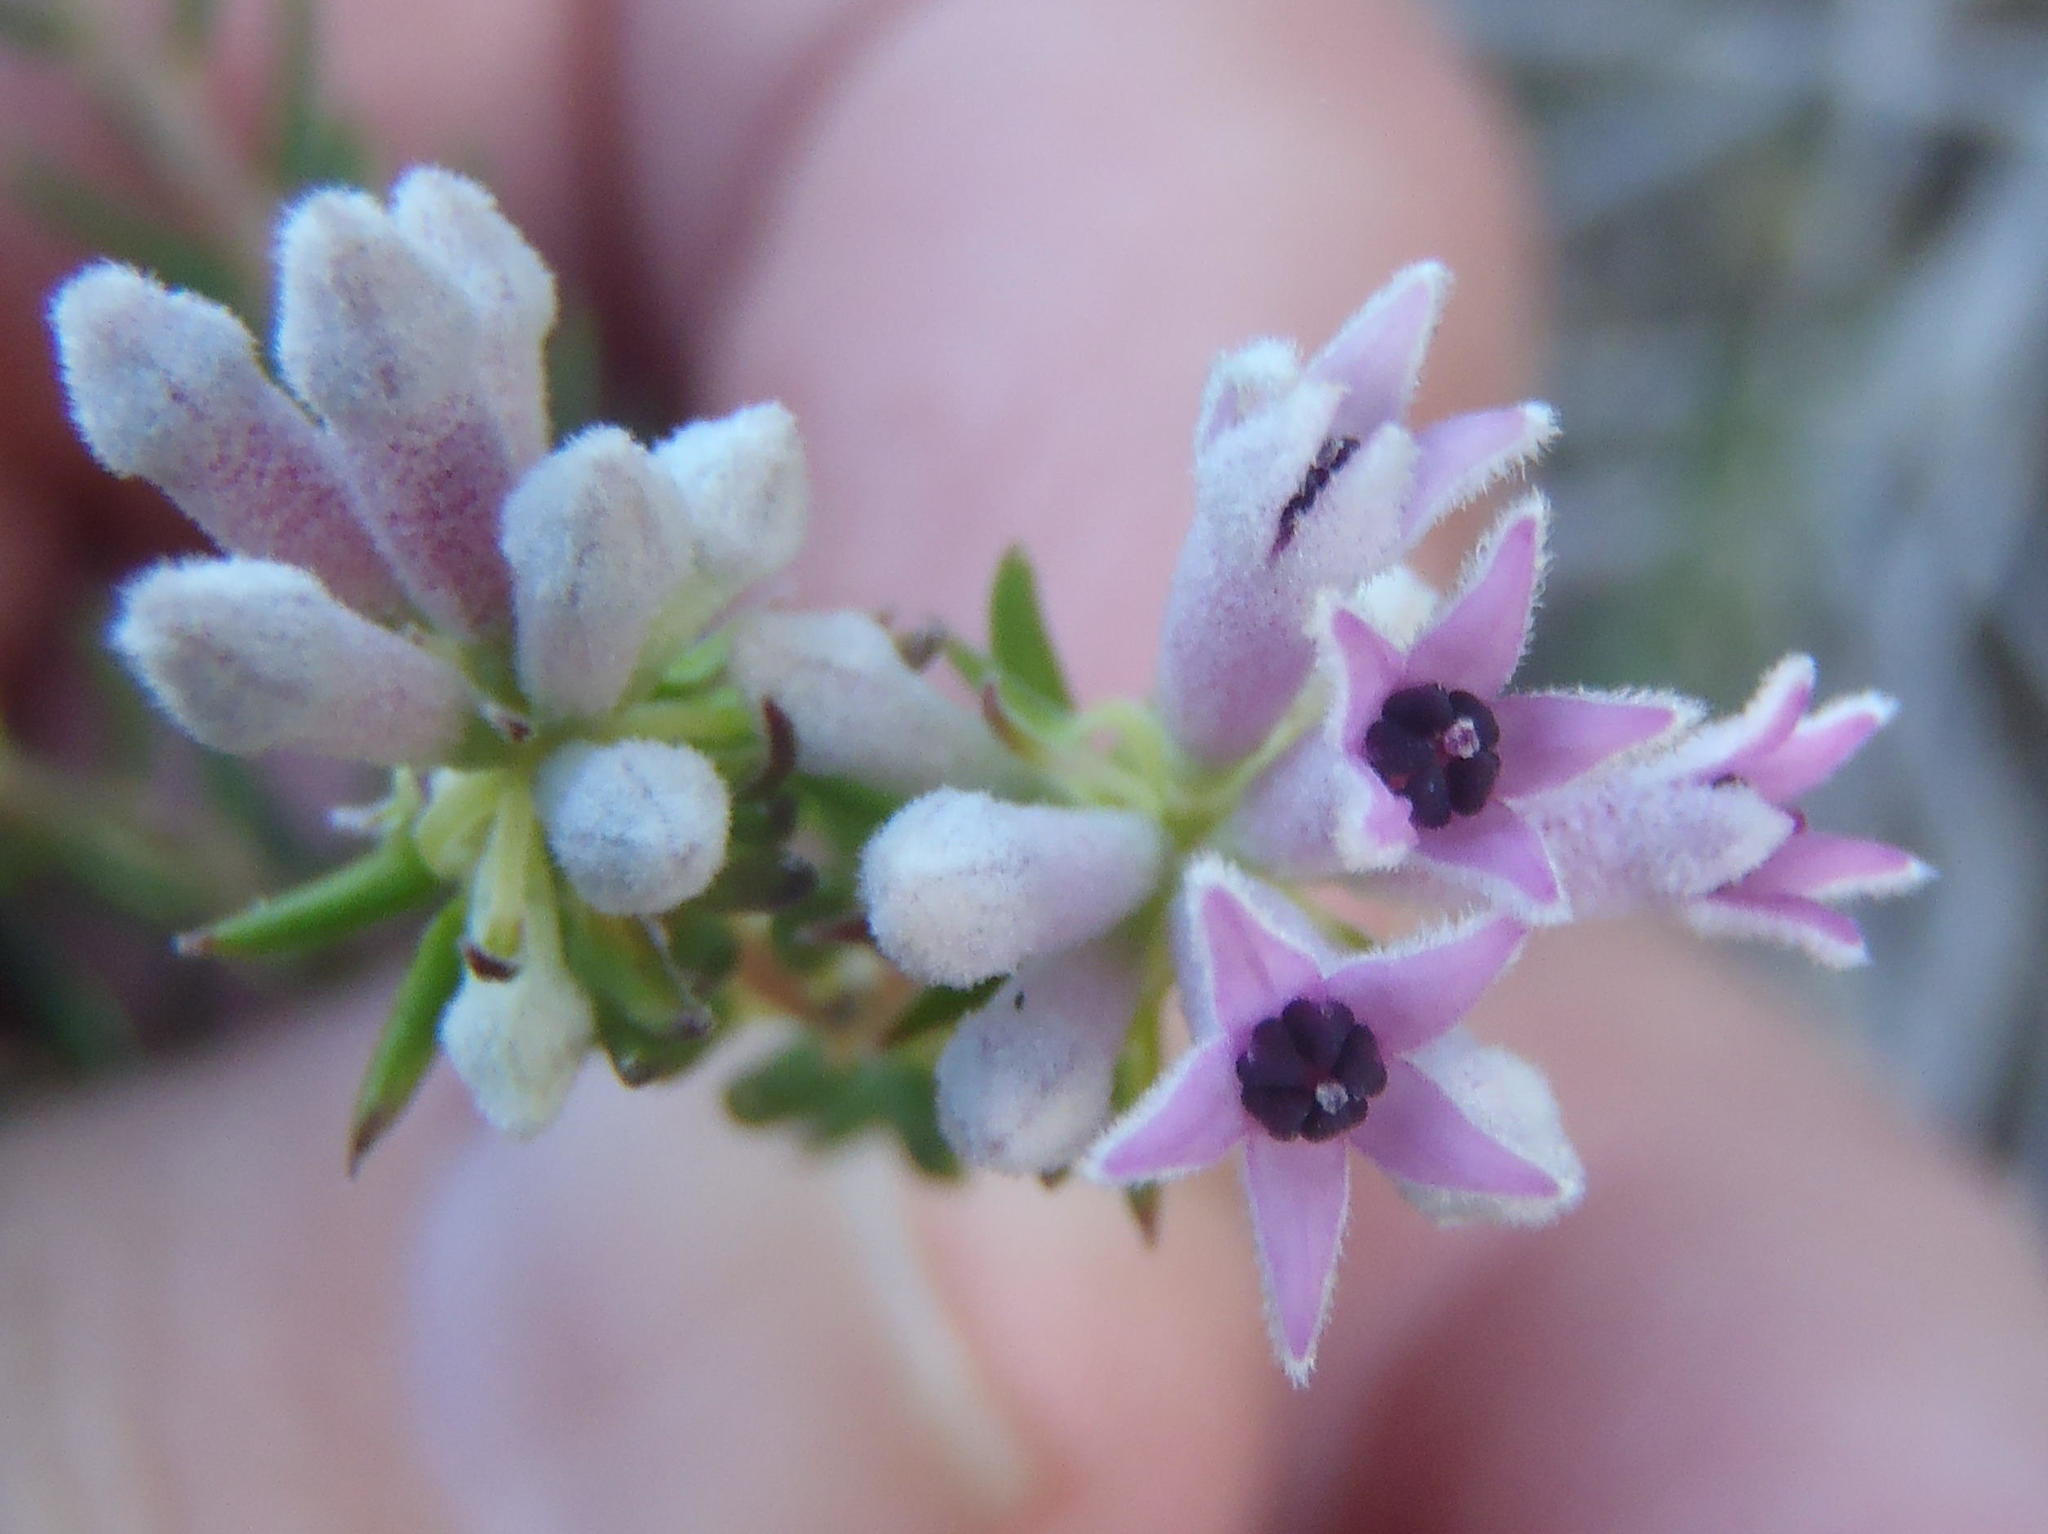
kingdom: Plantae
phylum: Tracheophyta
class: Magnoliopsida
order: Rosales
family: Rhamnaceae
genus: Phylica
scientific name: Phylica lachneaeoides
